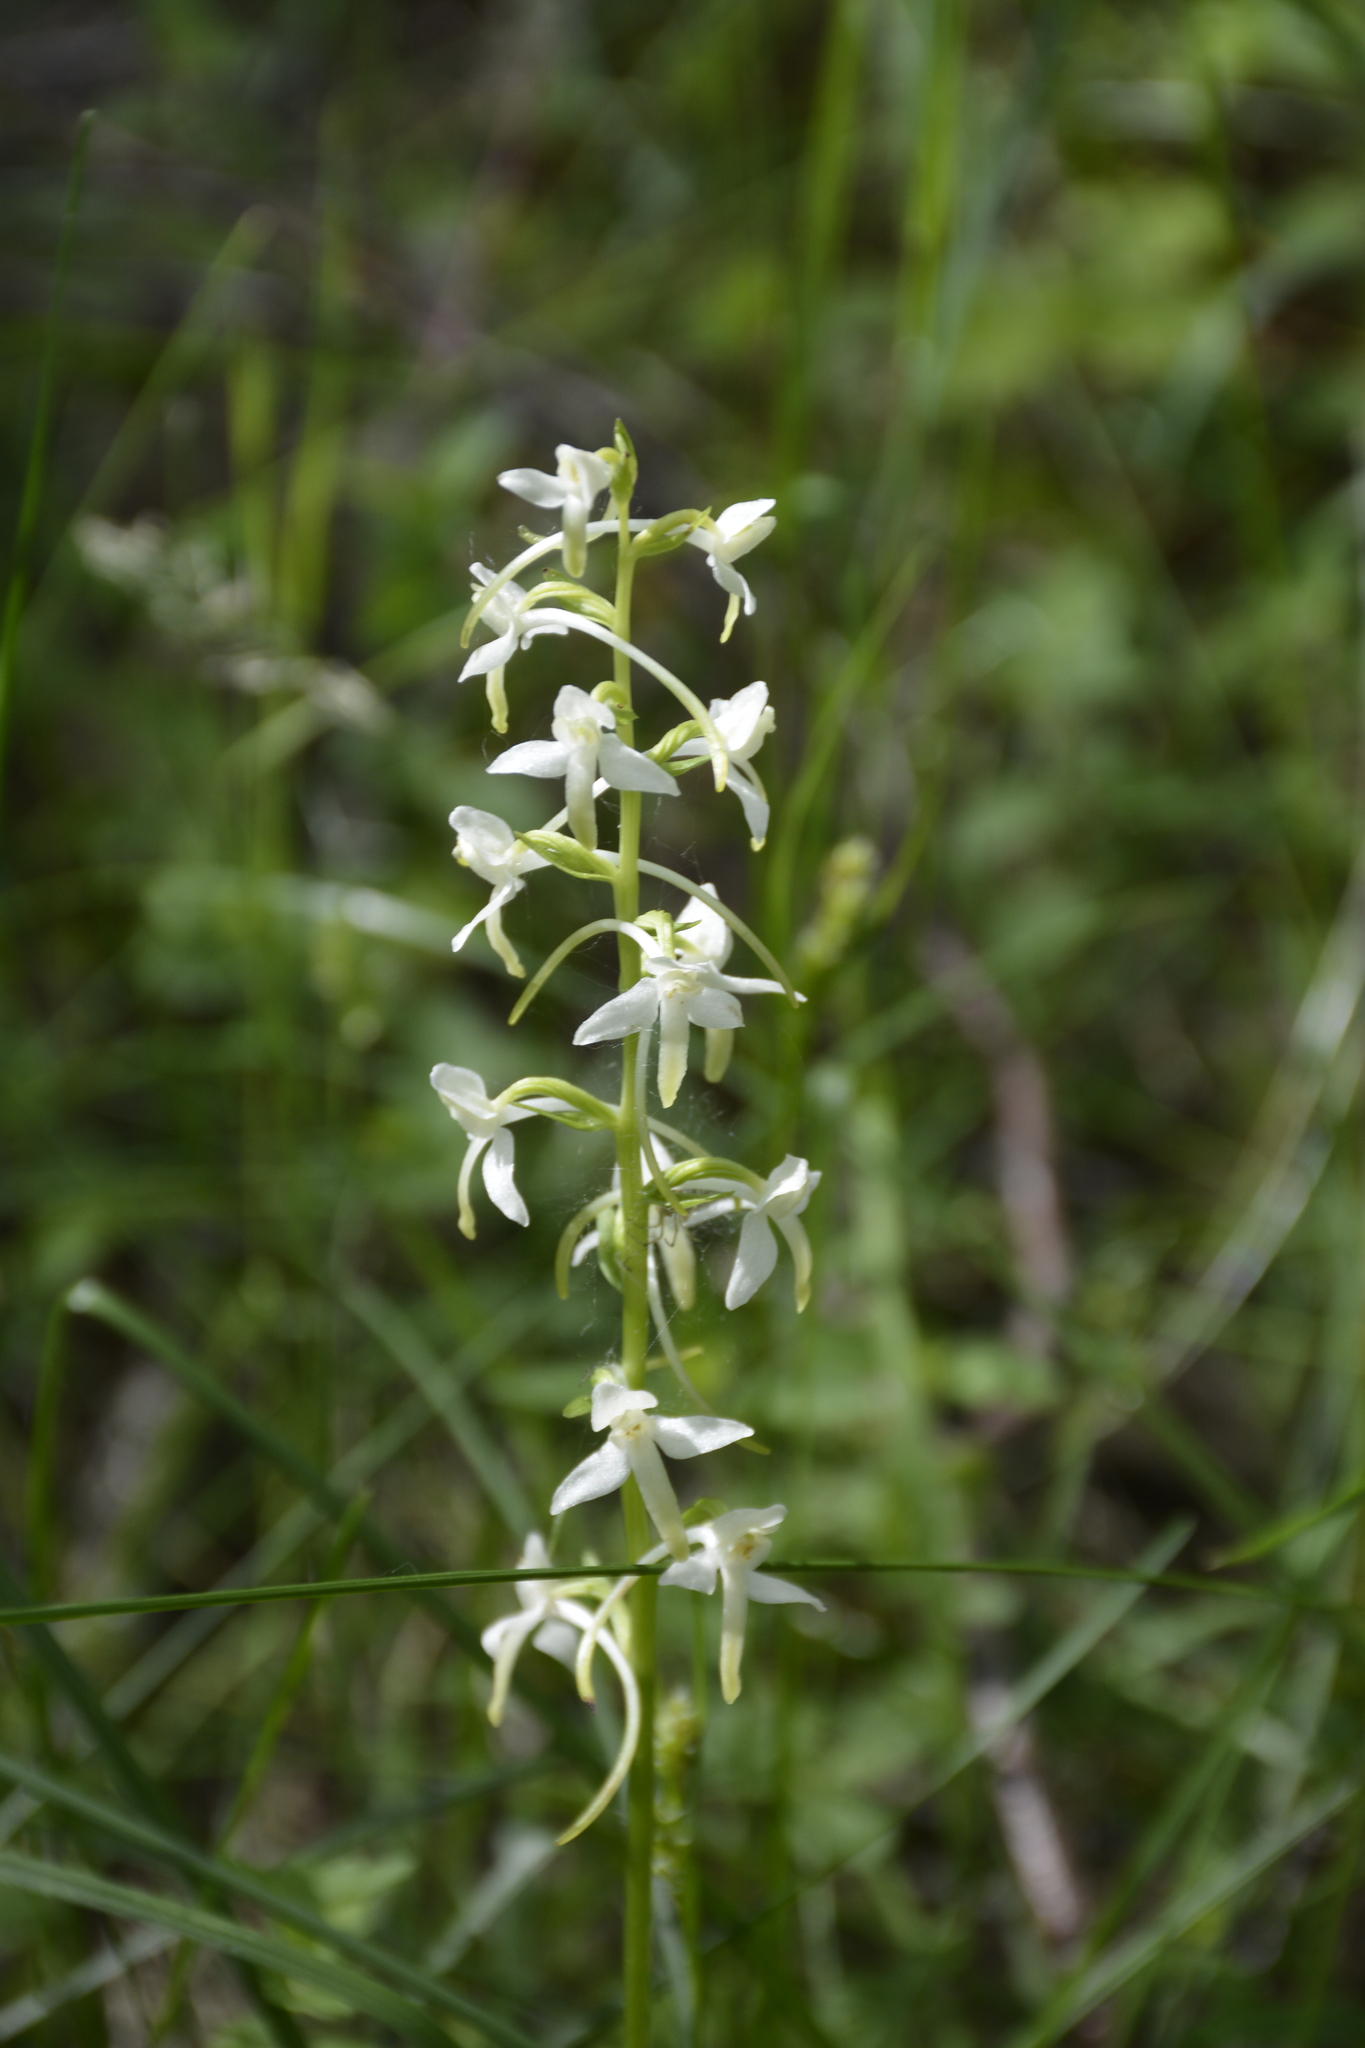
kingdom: Plantae
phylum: Tracheophyta
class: Liliopsida
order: Asparagales
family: Orchidaceae
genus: Platanthera
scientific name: Platanthera bifolia
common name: Lesser butterfly-orchid
